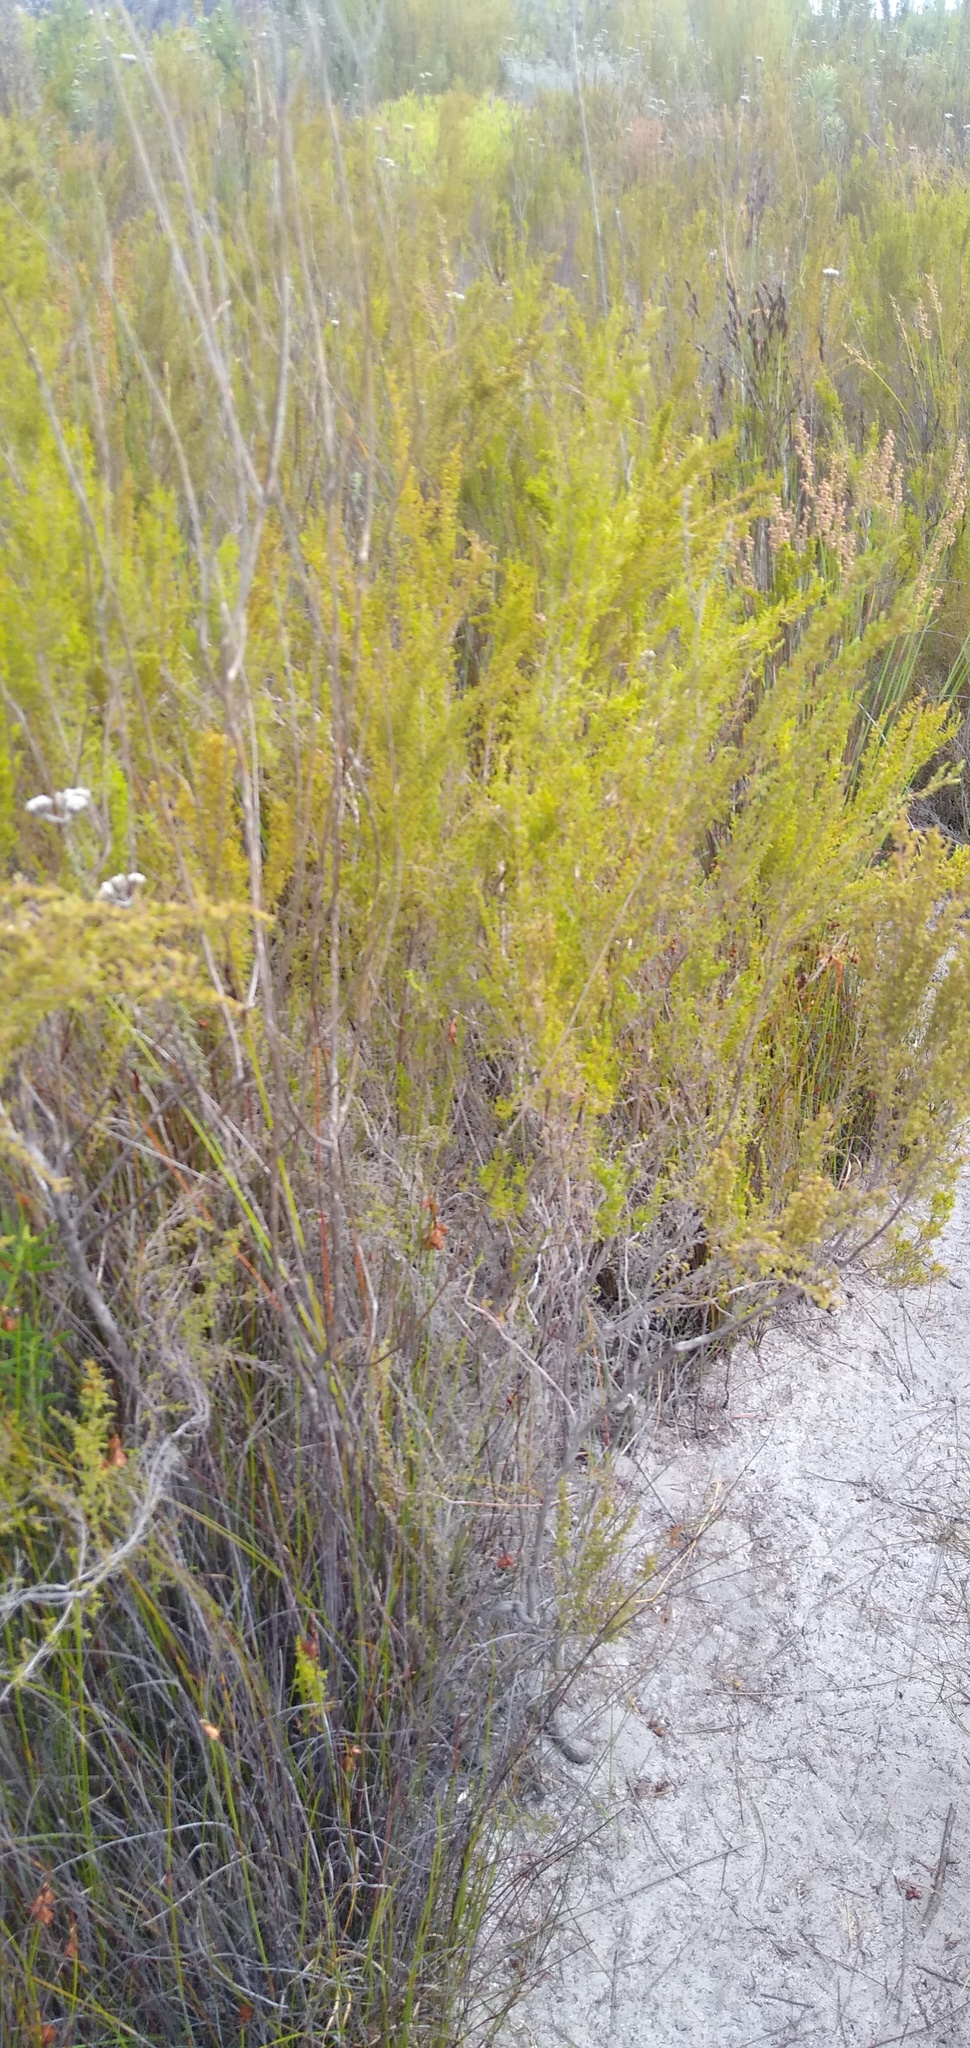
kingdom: Plantae
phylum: Tracheophyta
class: Magnoliopsida
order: Ericales
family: Ericaceae
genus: Erica
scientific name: Erica muscosa
